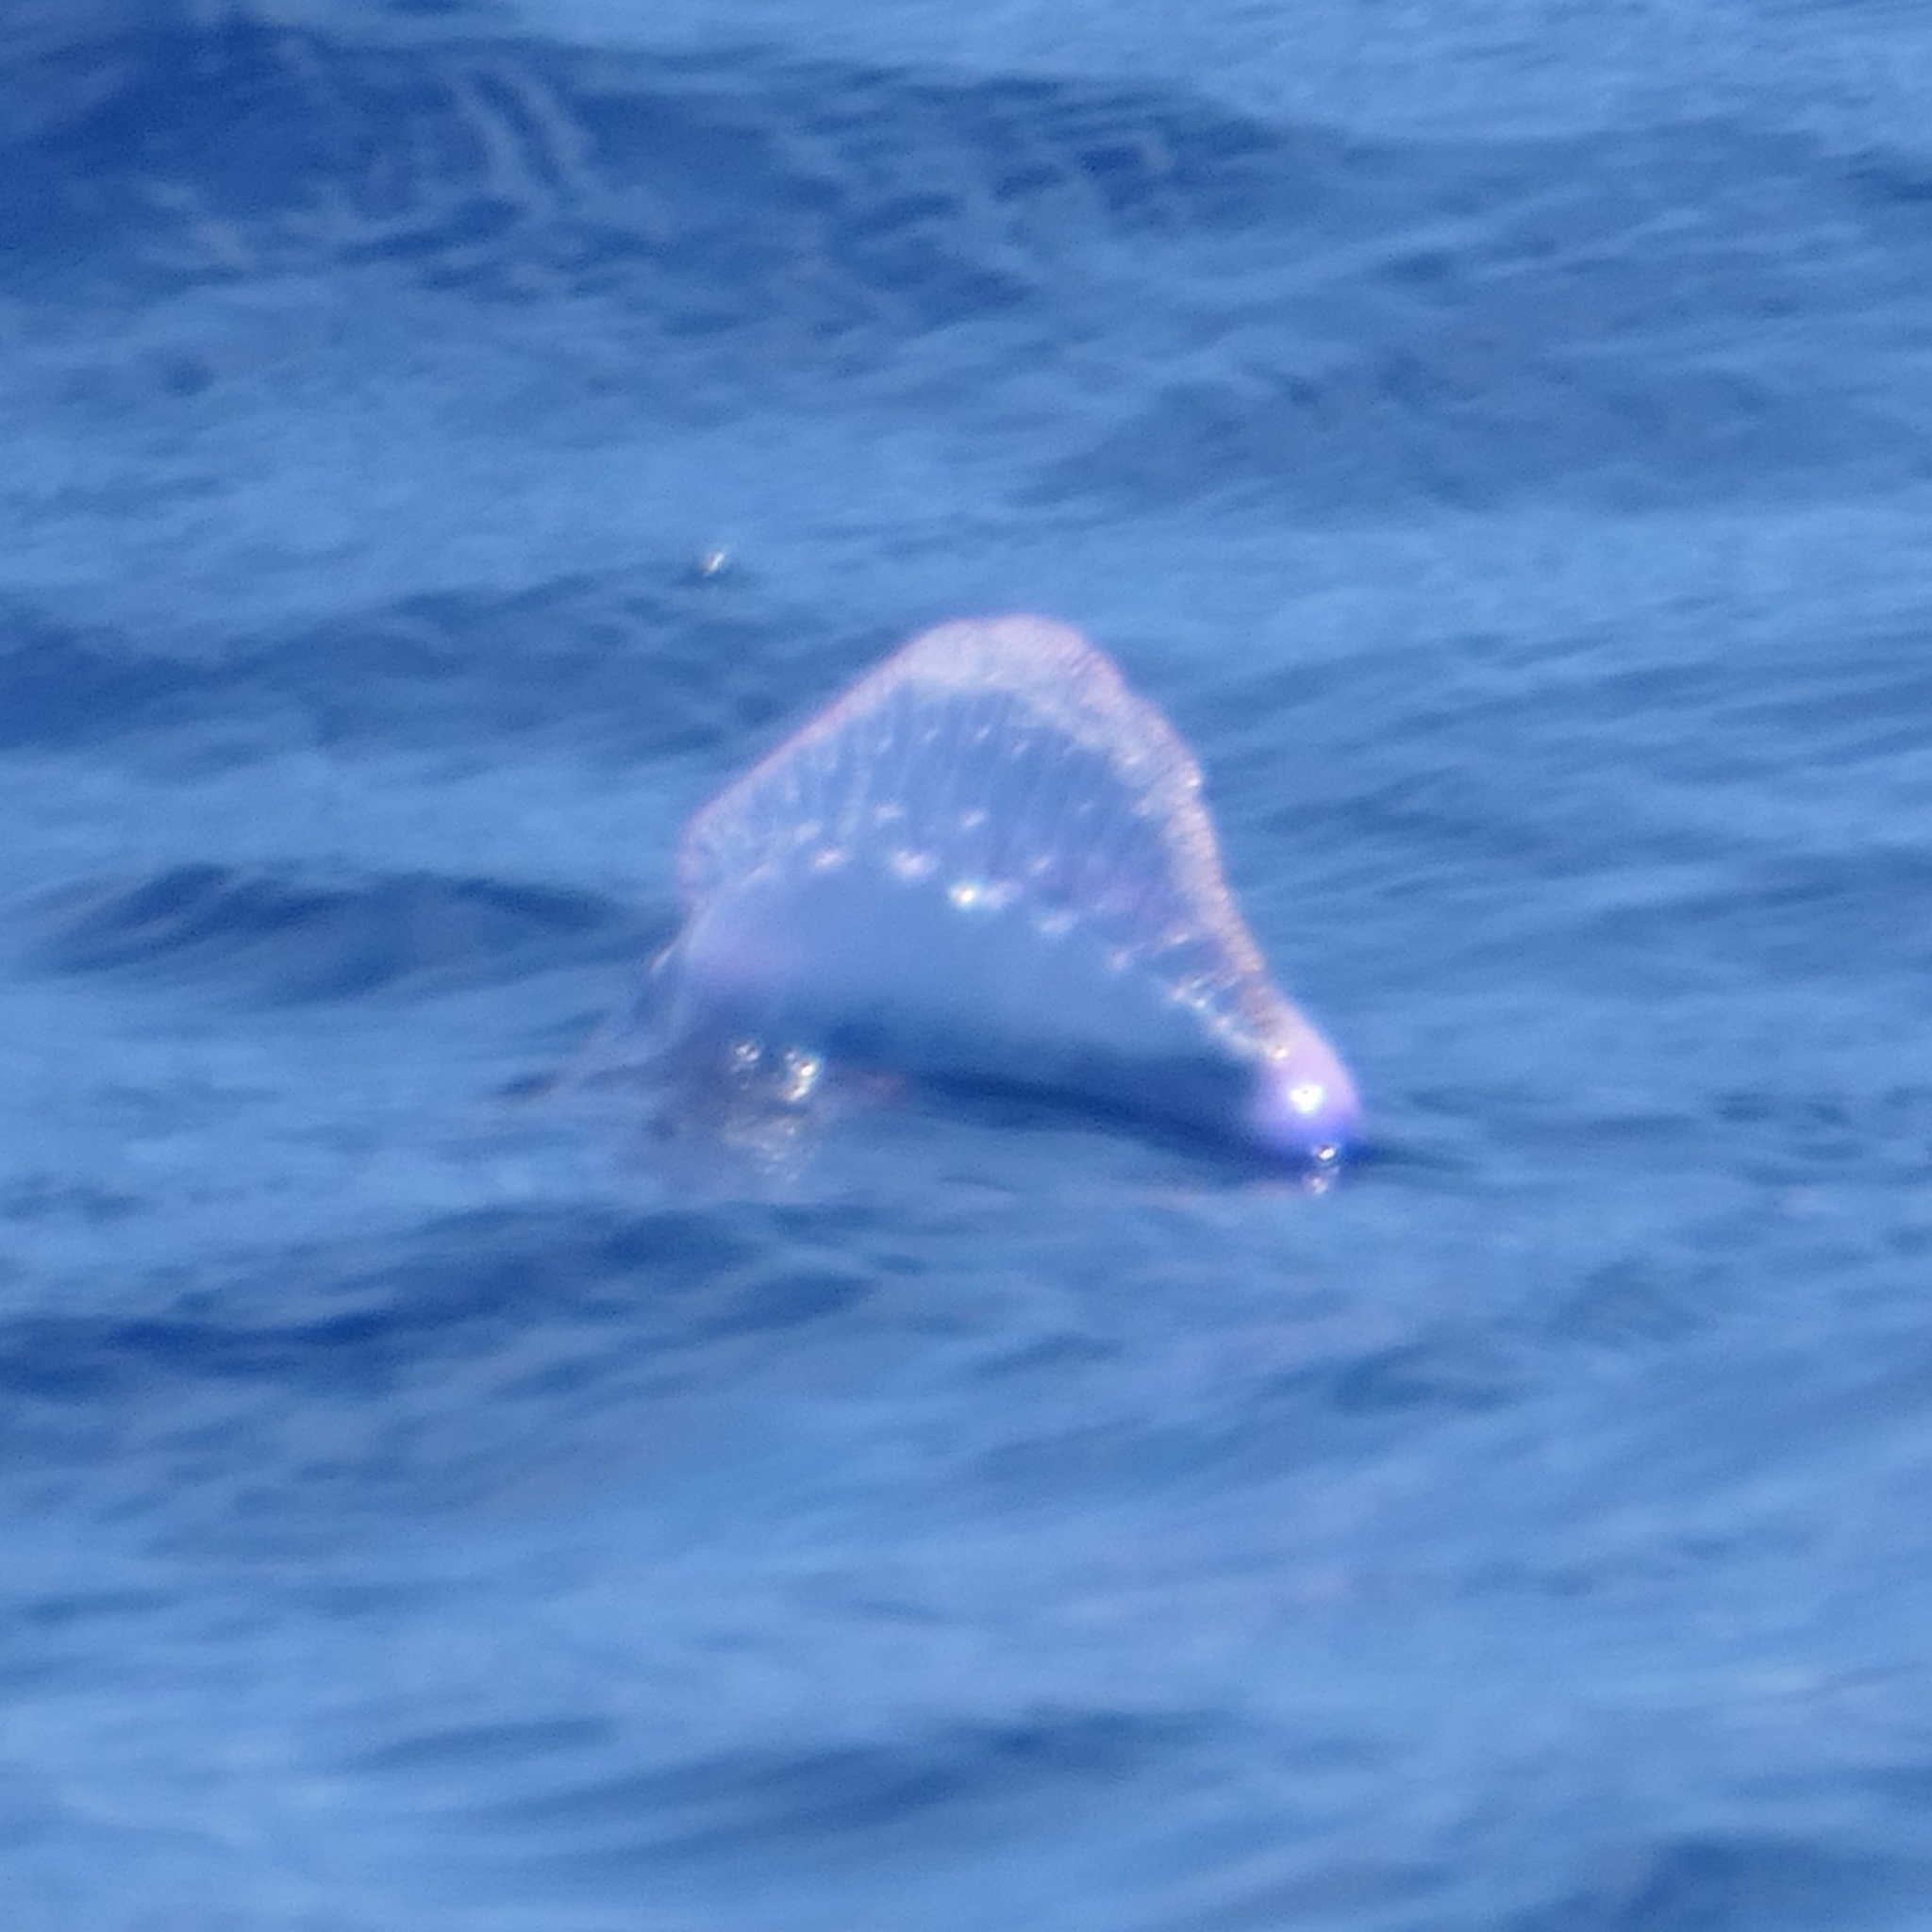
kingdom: Animalia
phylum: Cnidaria
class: Hydrozoa
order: Siphonophorae
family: Physaliidae
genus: Physalia
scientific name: Physalia physalis
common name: Portuguese man-of-war
